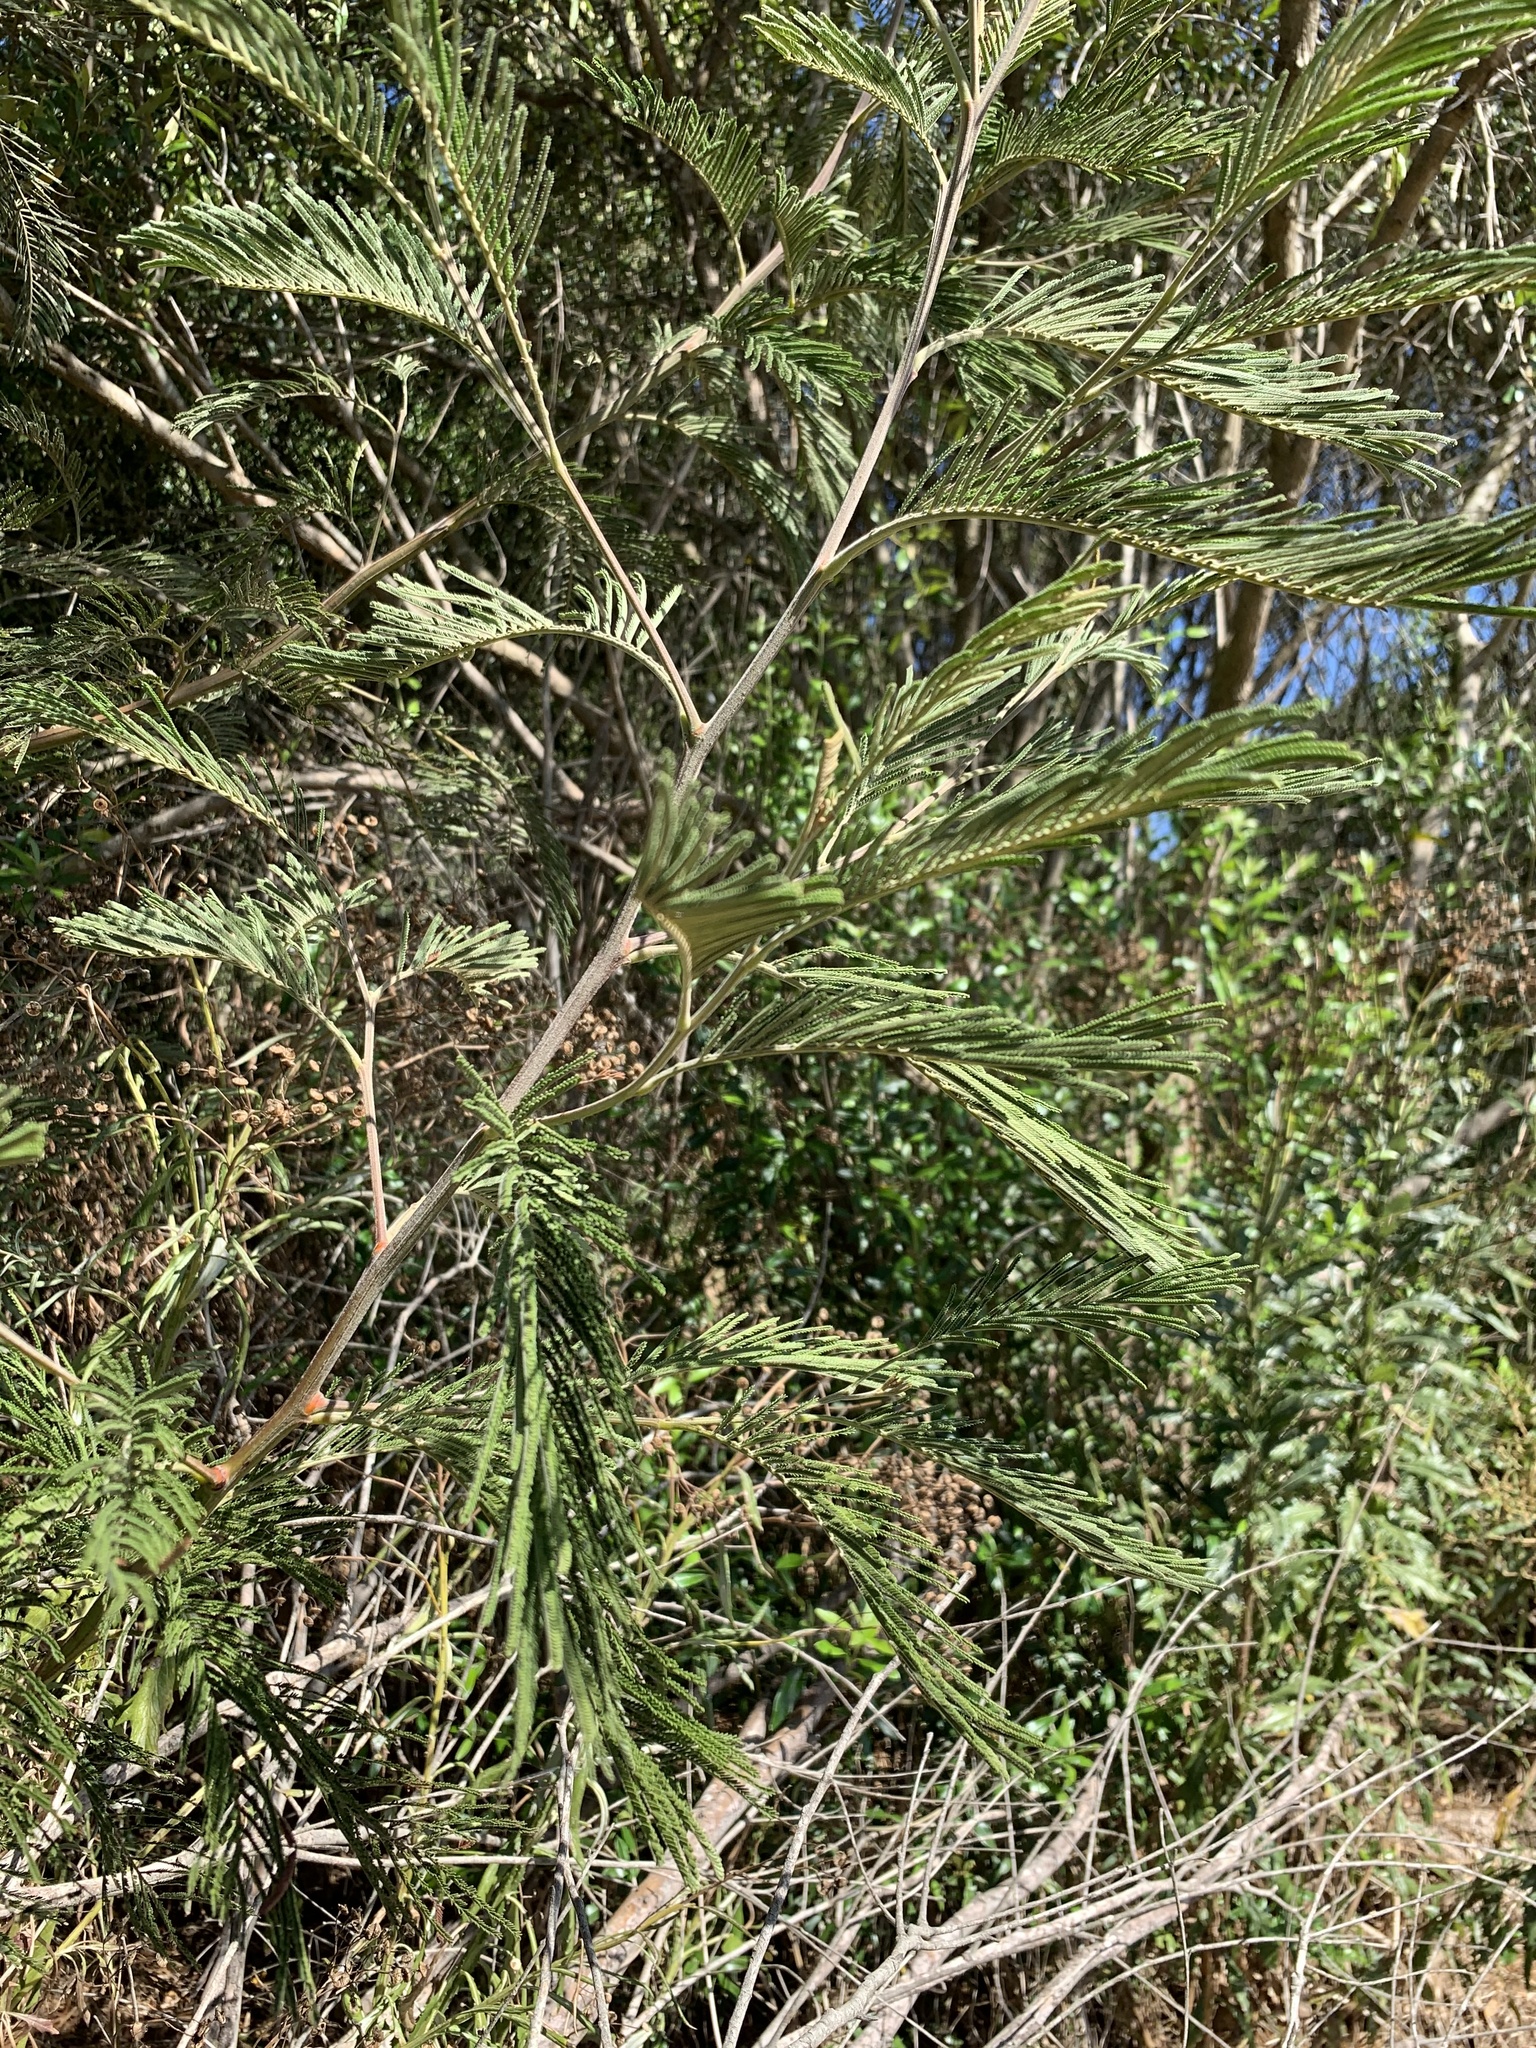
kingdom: Plantae
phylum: Tracheophyta
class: Magnoliopsida
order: Fabales
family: Fabaceae
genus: Acacia
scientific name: Acacia mearnsii
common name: Black wattle
